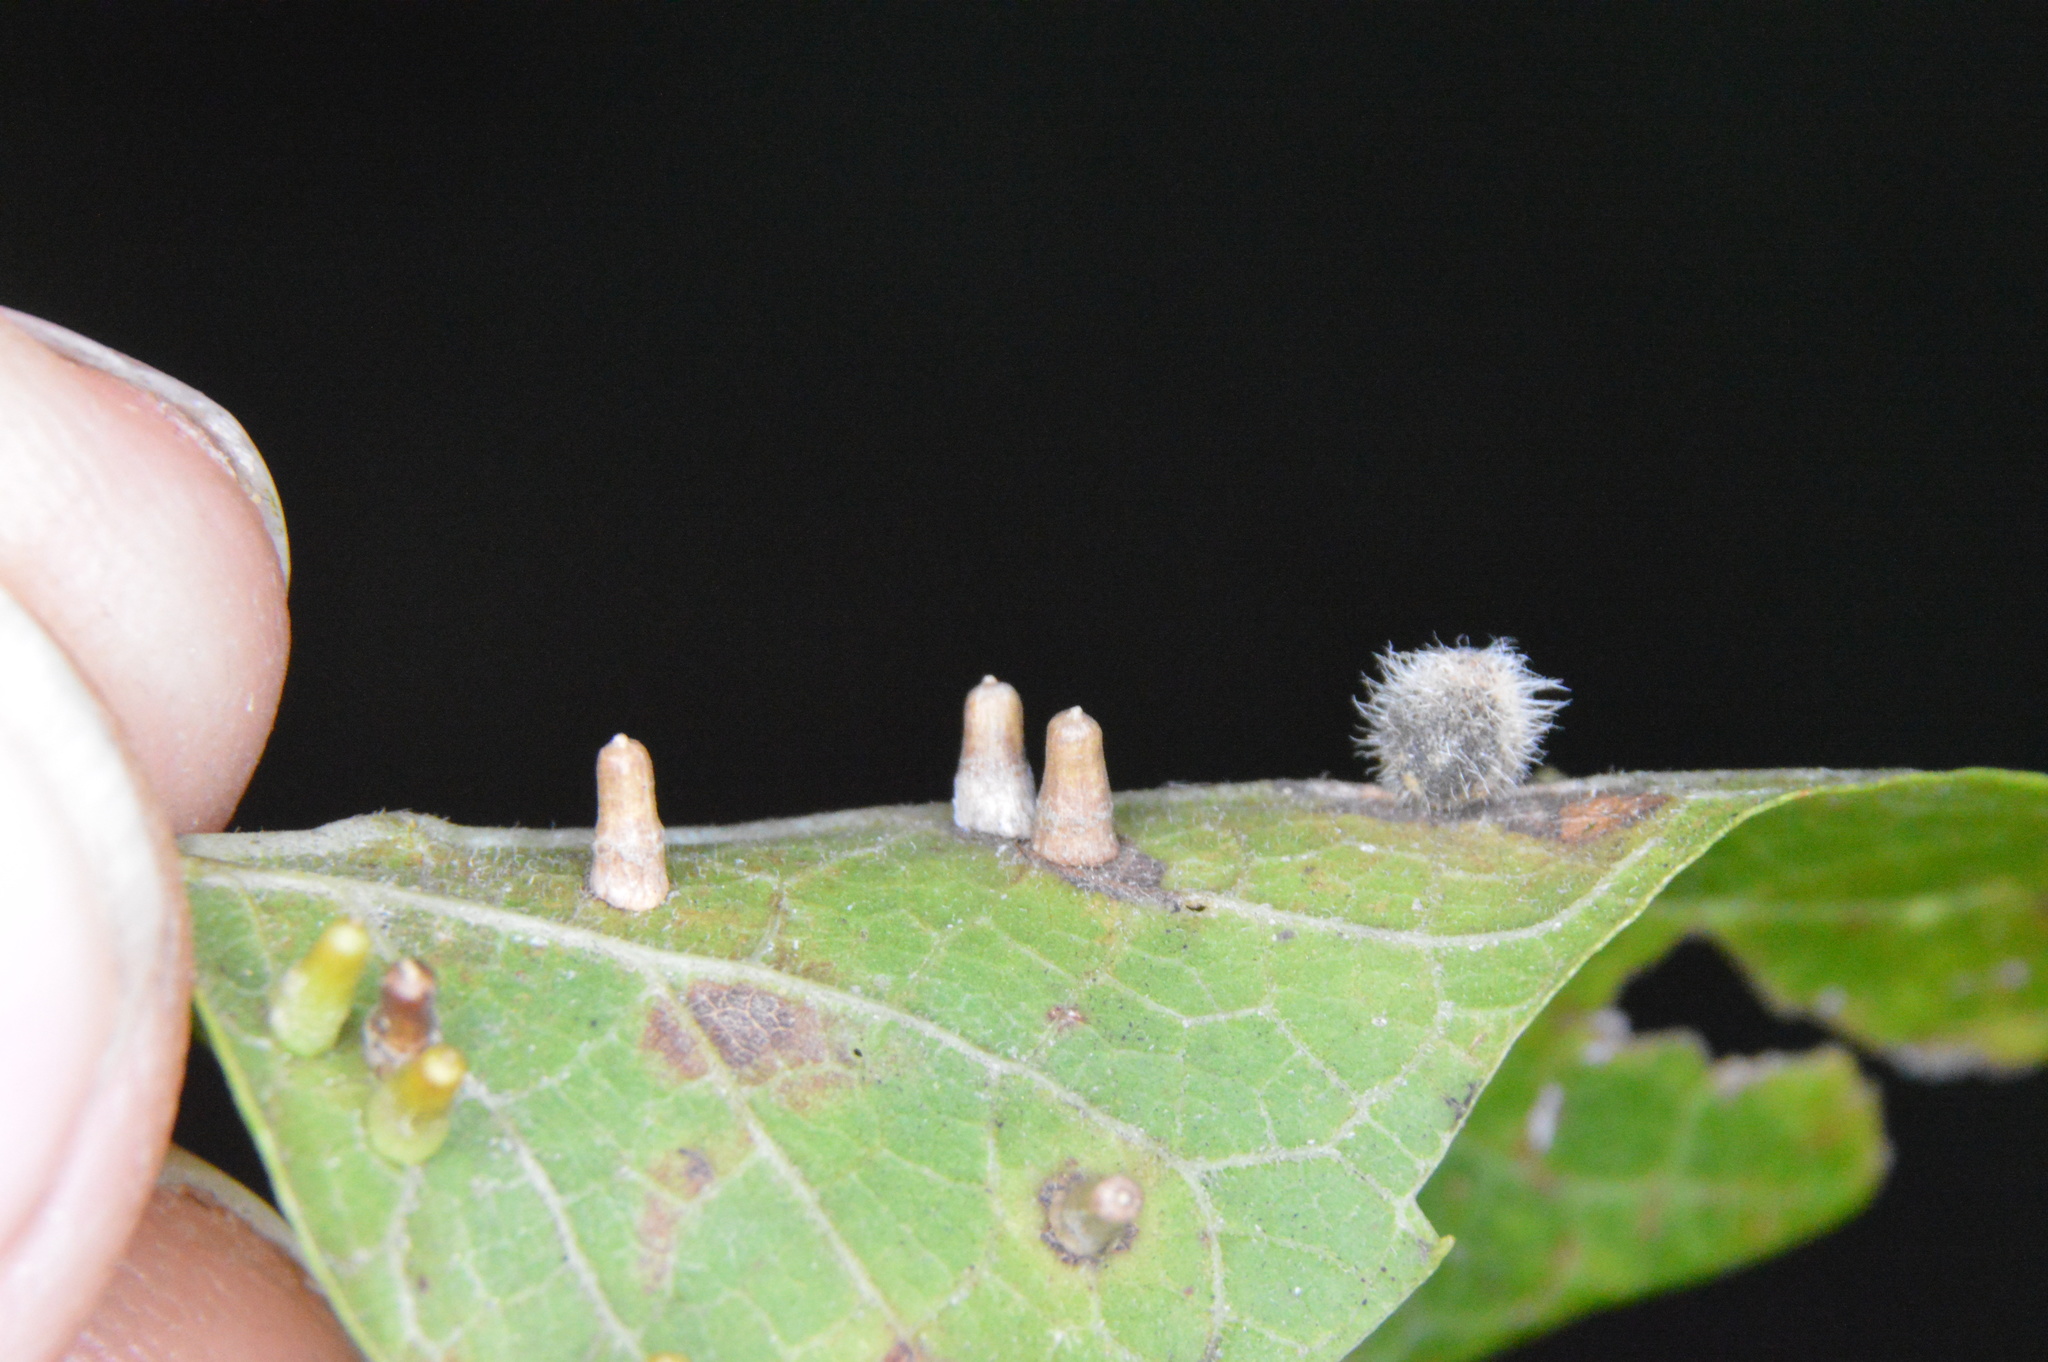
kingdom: Animalia
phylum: Arthropoda
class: Insecta
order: Diptera
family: Cecidomyiidae
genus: Celticecis
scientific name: Celticecis aciculata
